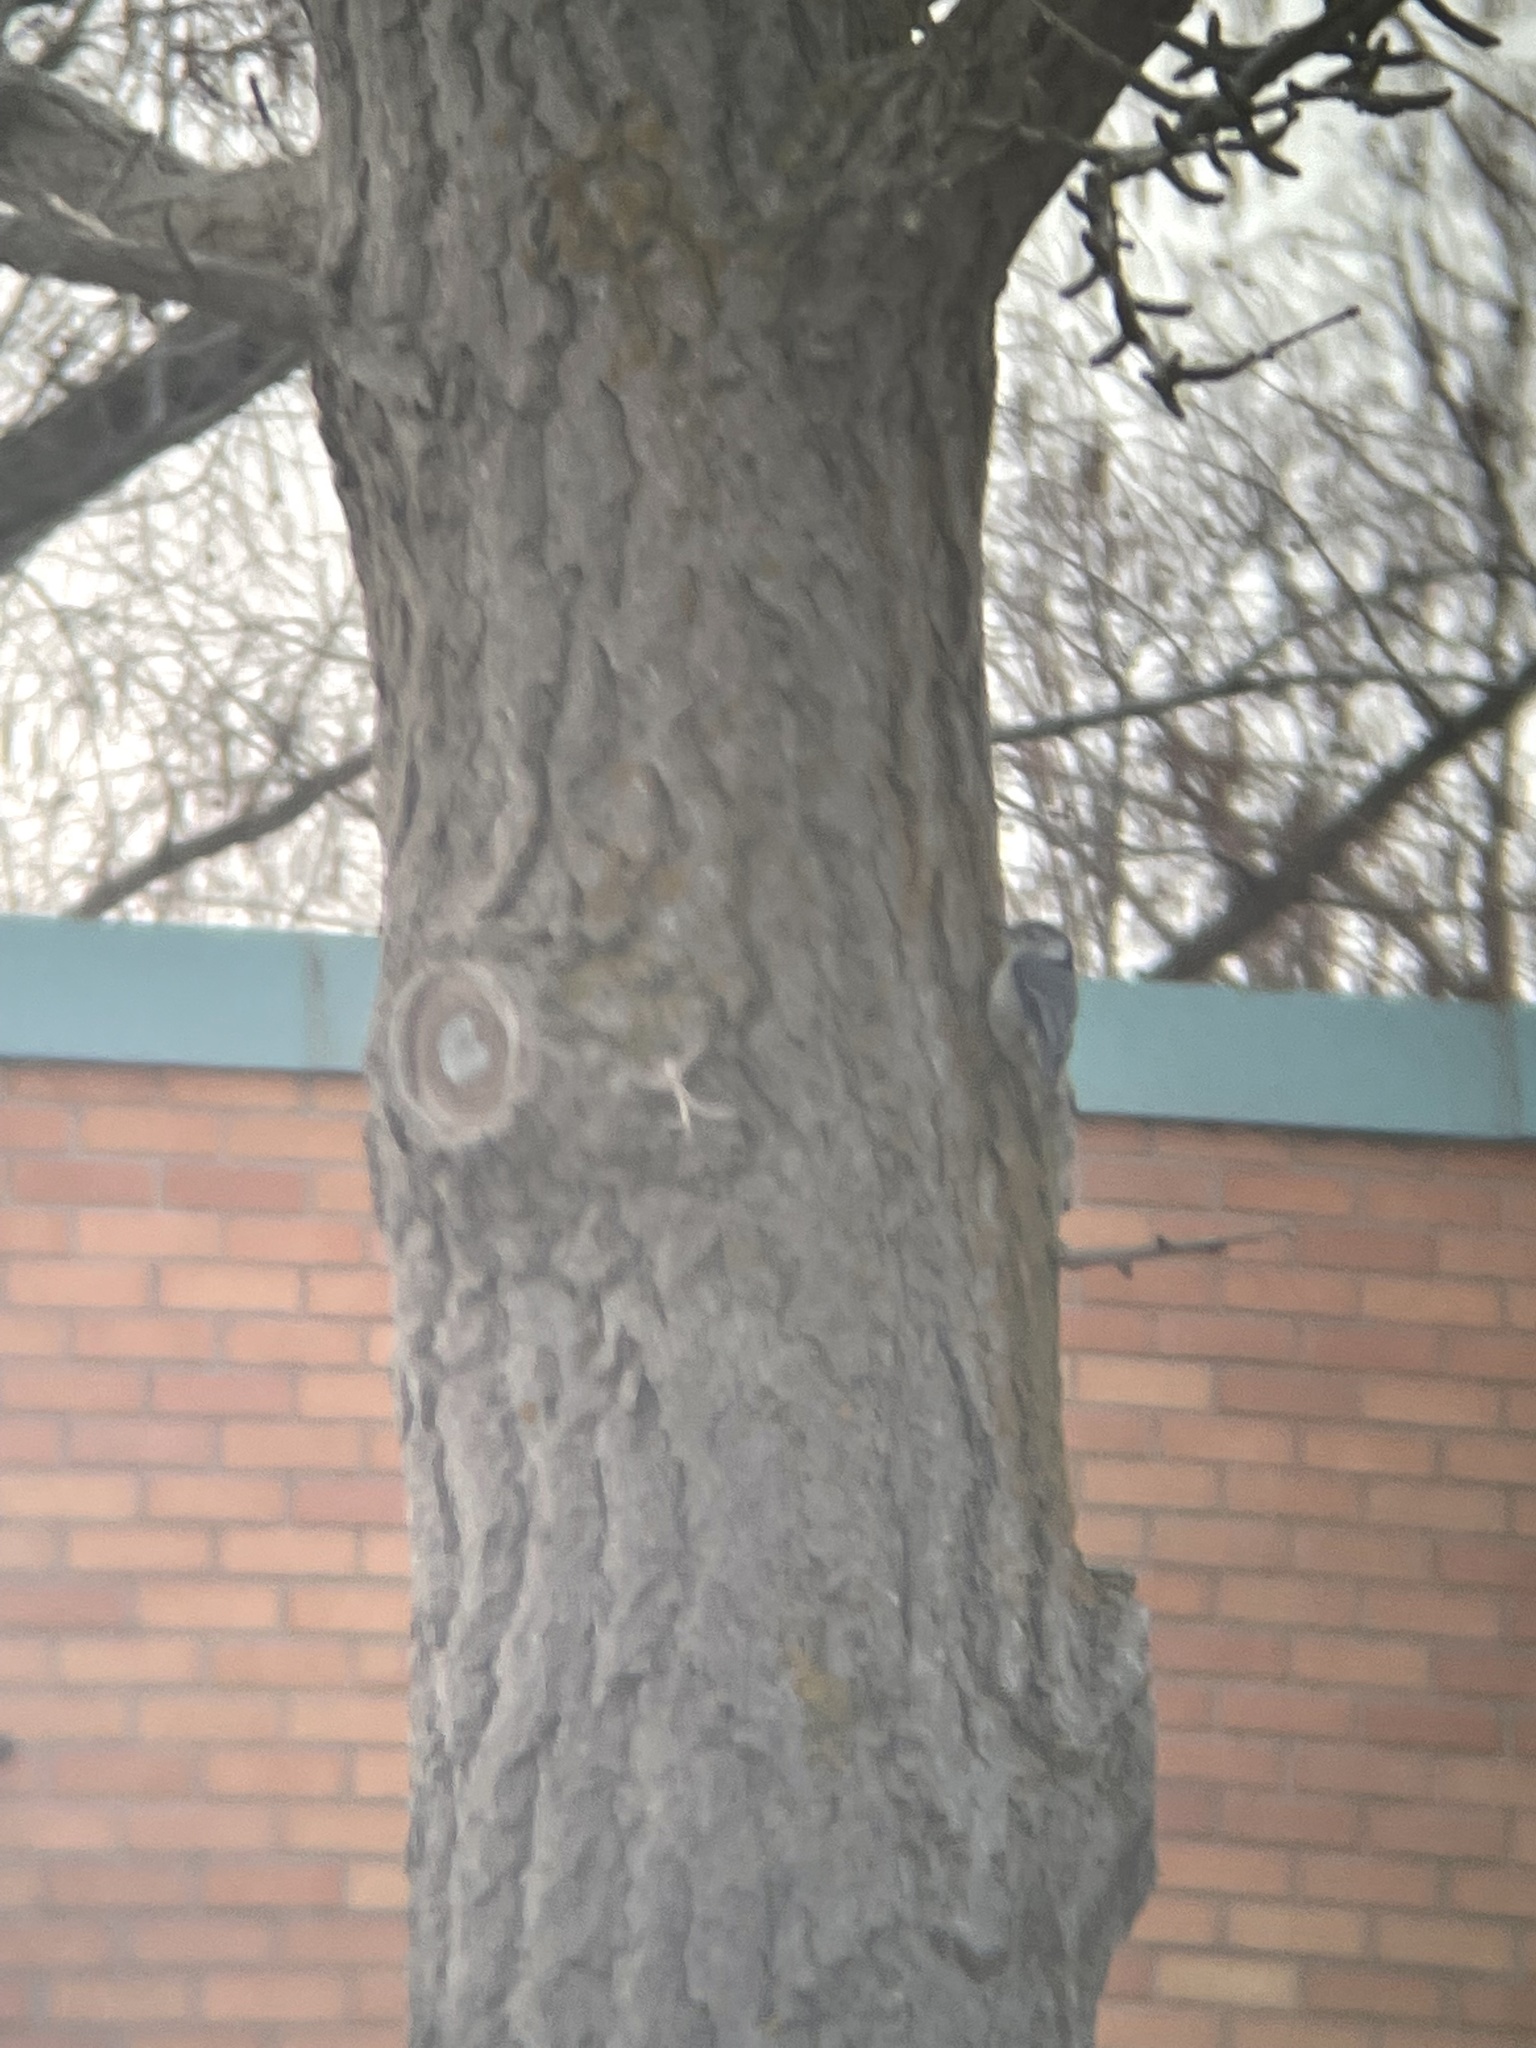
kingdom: Animalia
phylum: Chordata
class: Aves
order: Passeriformes
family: Sittidae
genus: Sitta
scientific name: Sitta carolinensis
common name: White-breasted nuthatch
